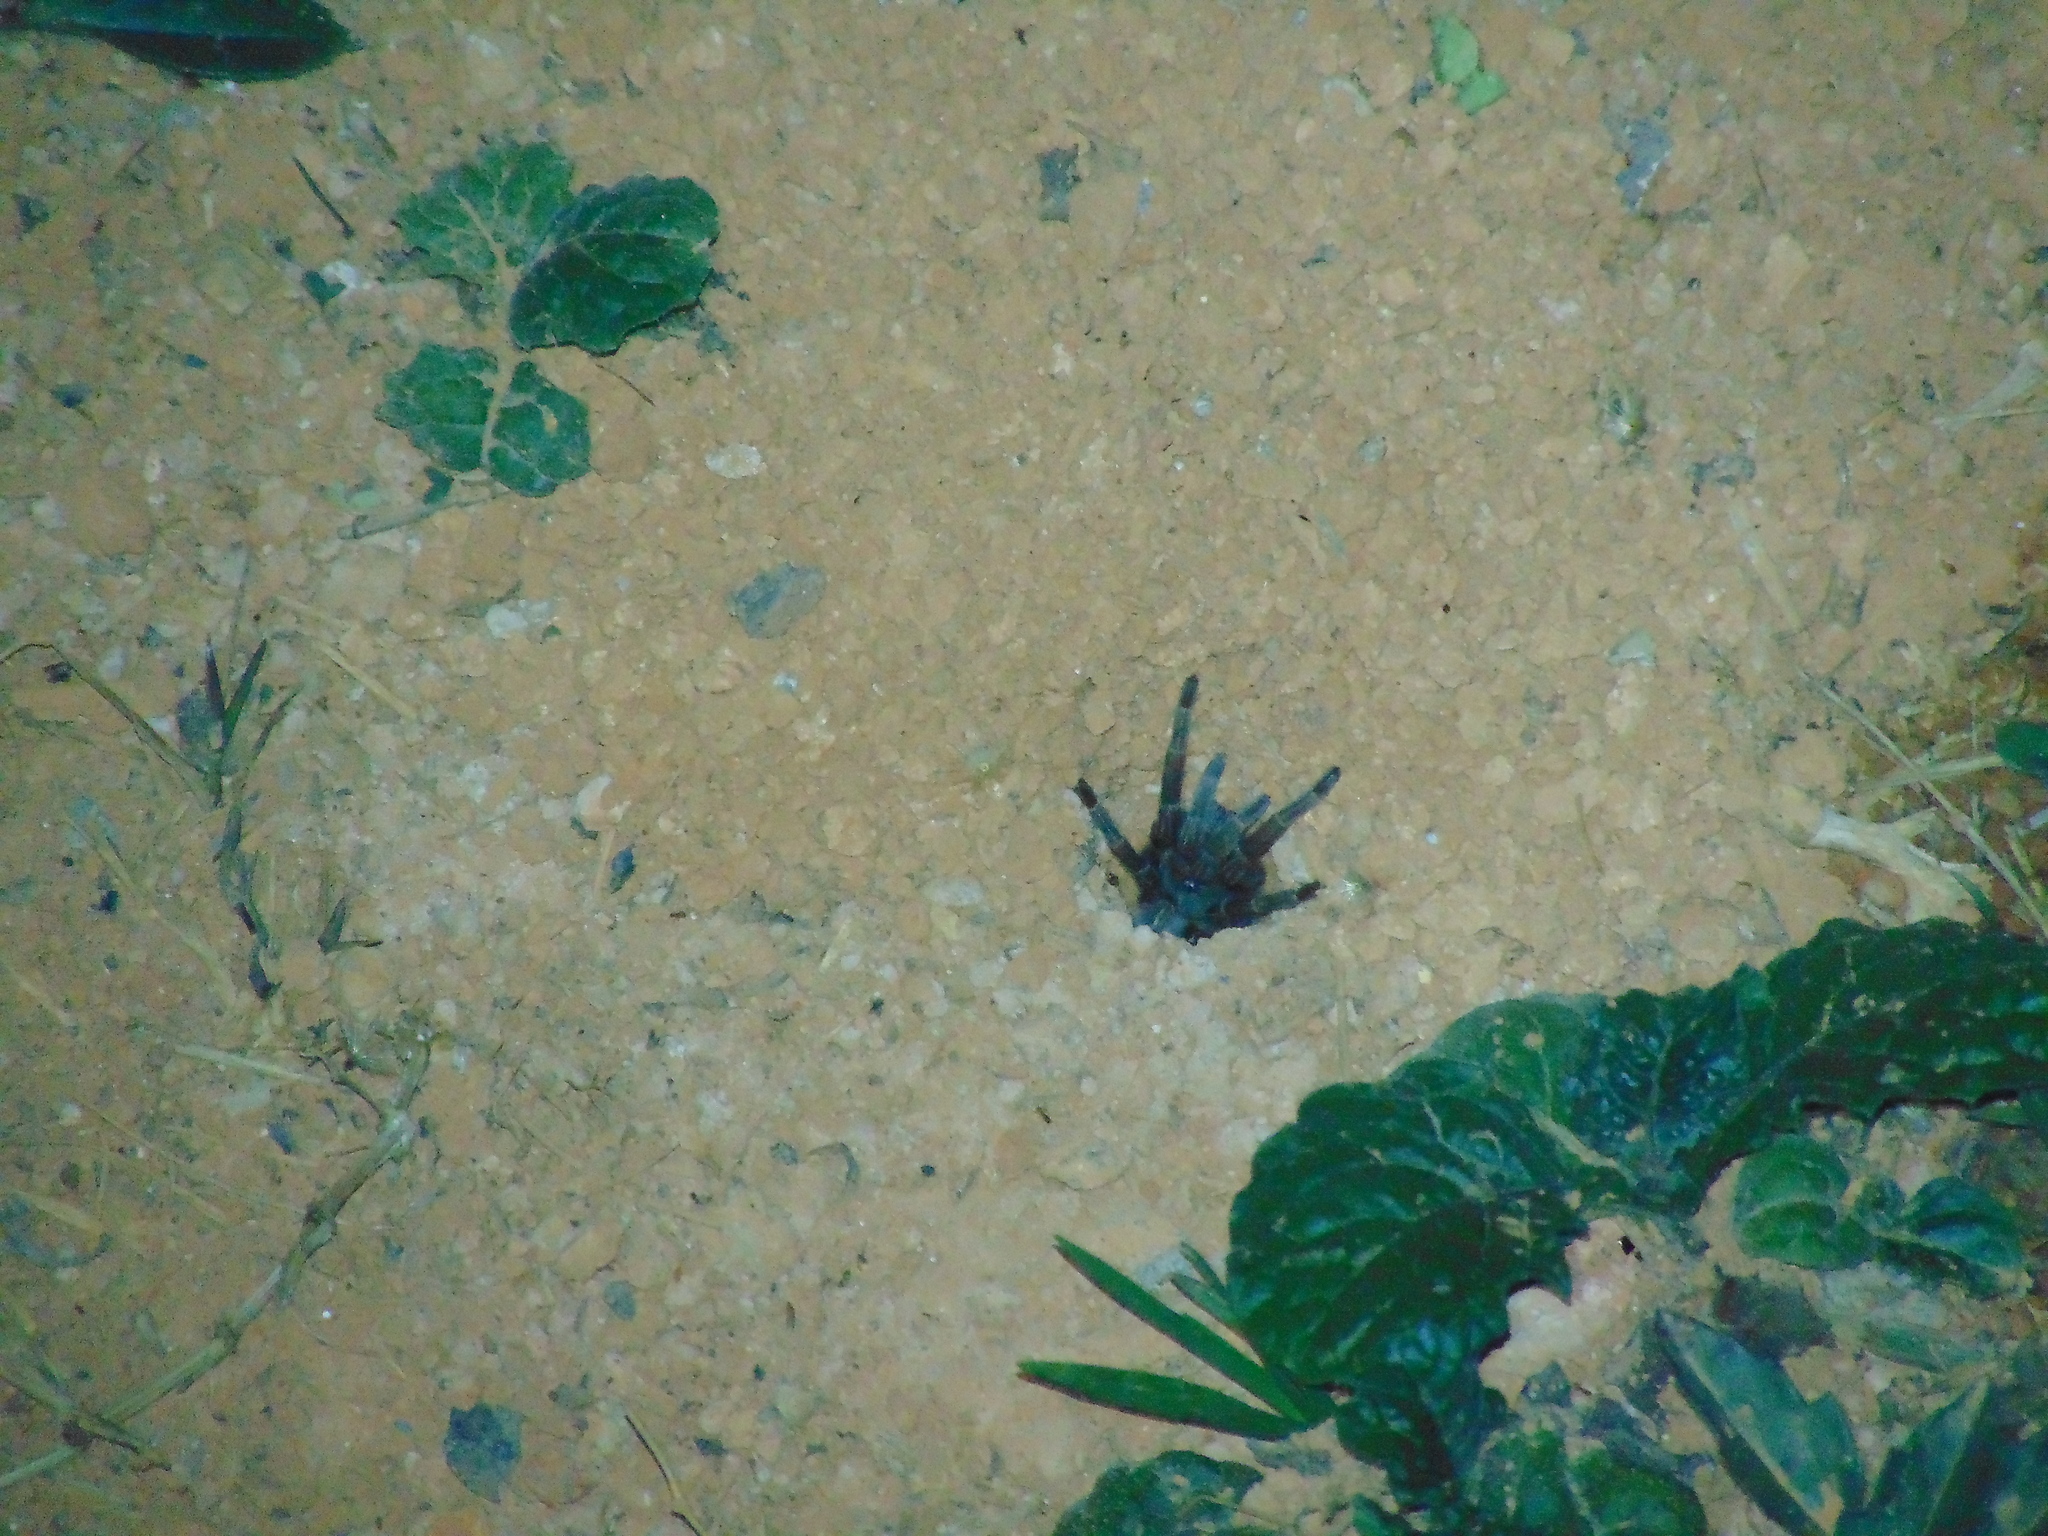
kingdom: Animalia
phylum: Arthropoda
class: Arachnida
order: Araneae
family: Theraphosidae
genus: Cyrtopholis
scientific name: Cyrtopholis portoricae
